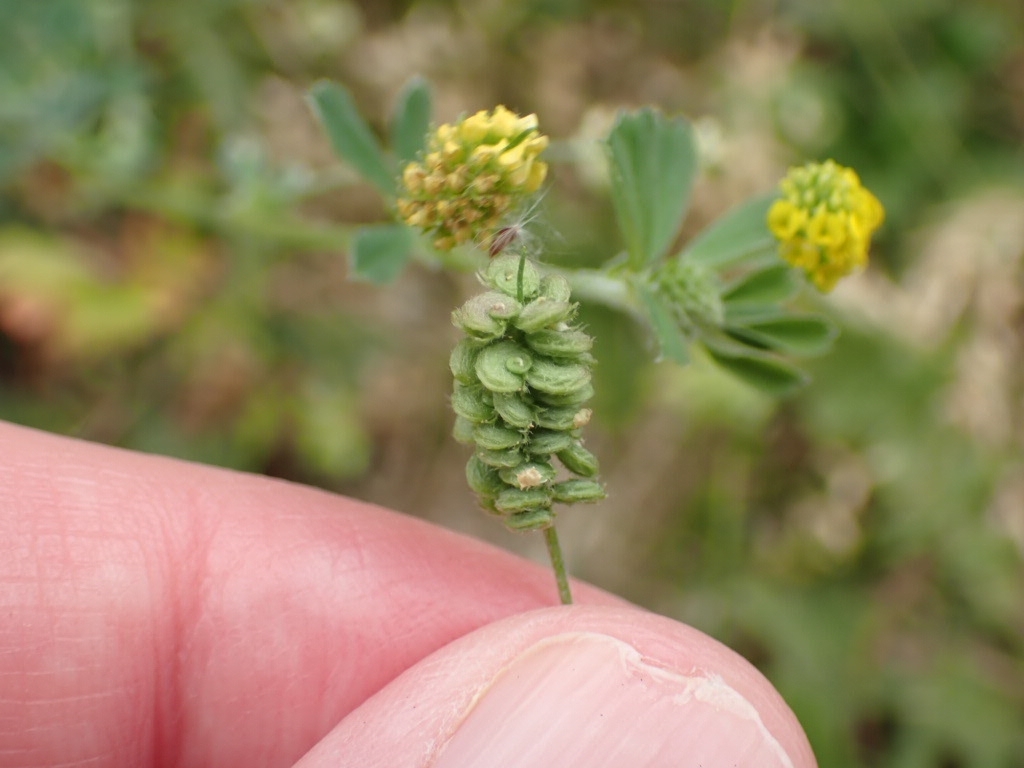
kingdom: Plantae
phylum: Tracheophyta
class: Magnoliopsida
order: Fabales
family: Fabaceae
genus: Medicago
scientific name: Medicago lupulina
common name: Black medick
